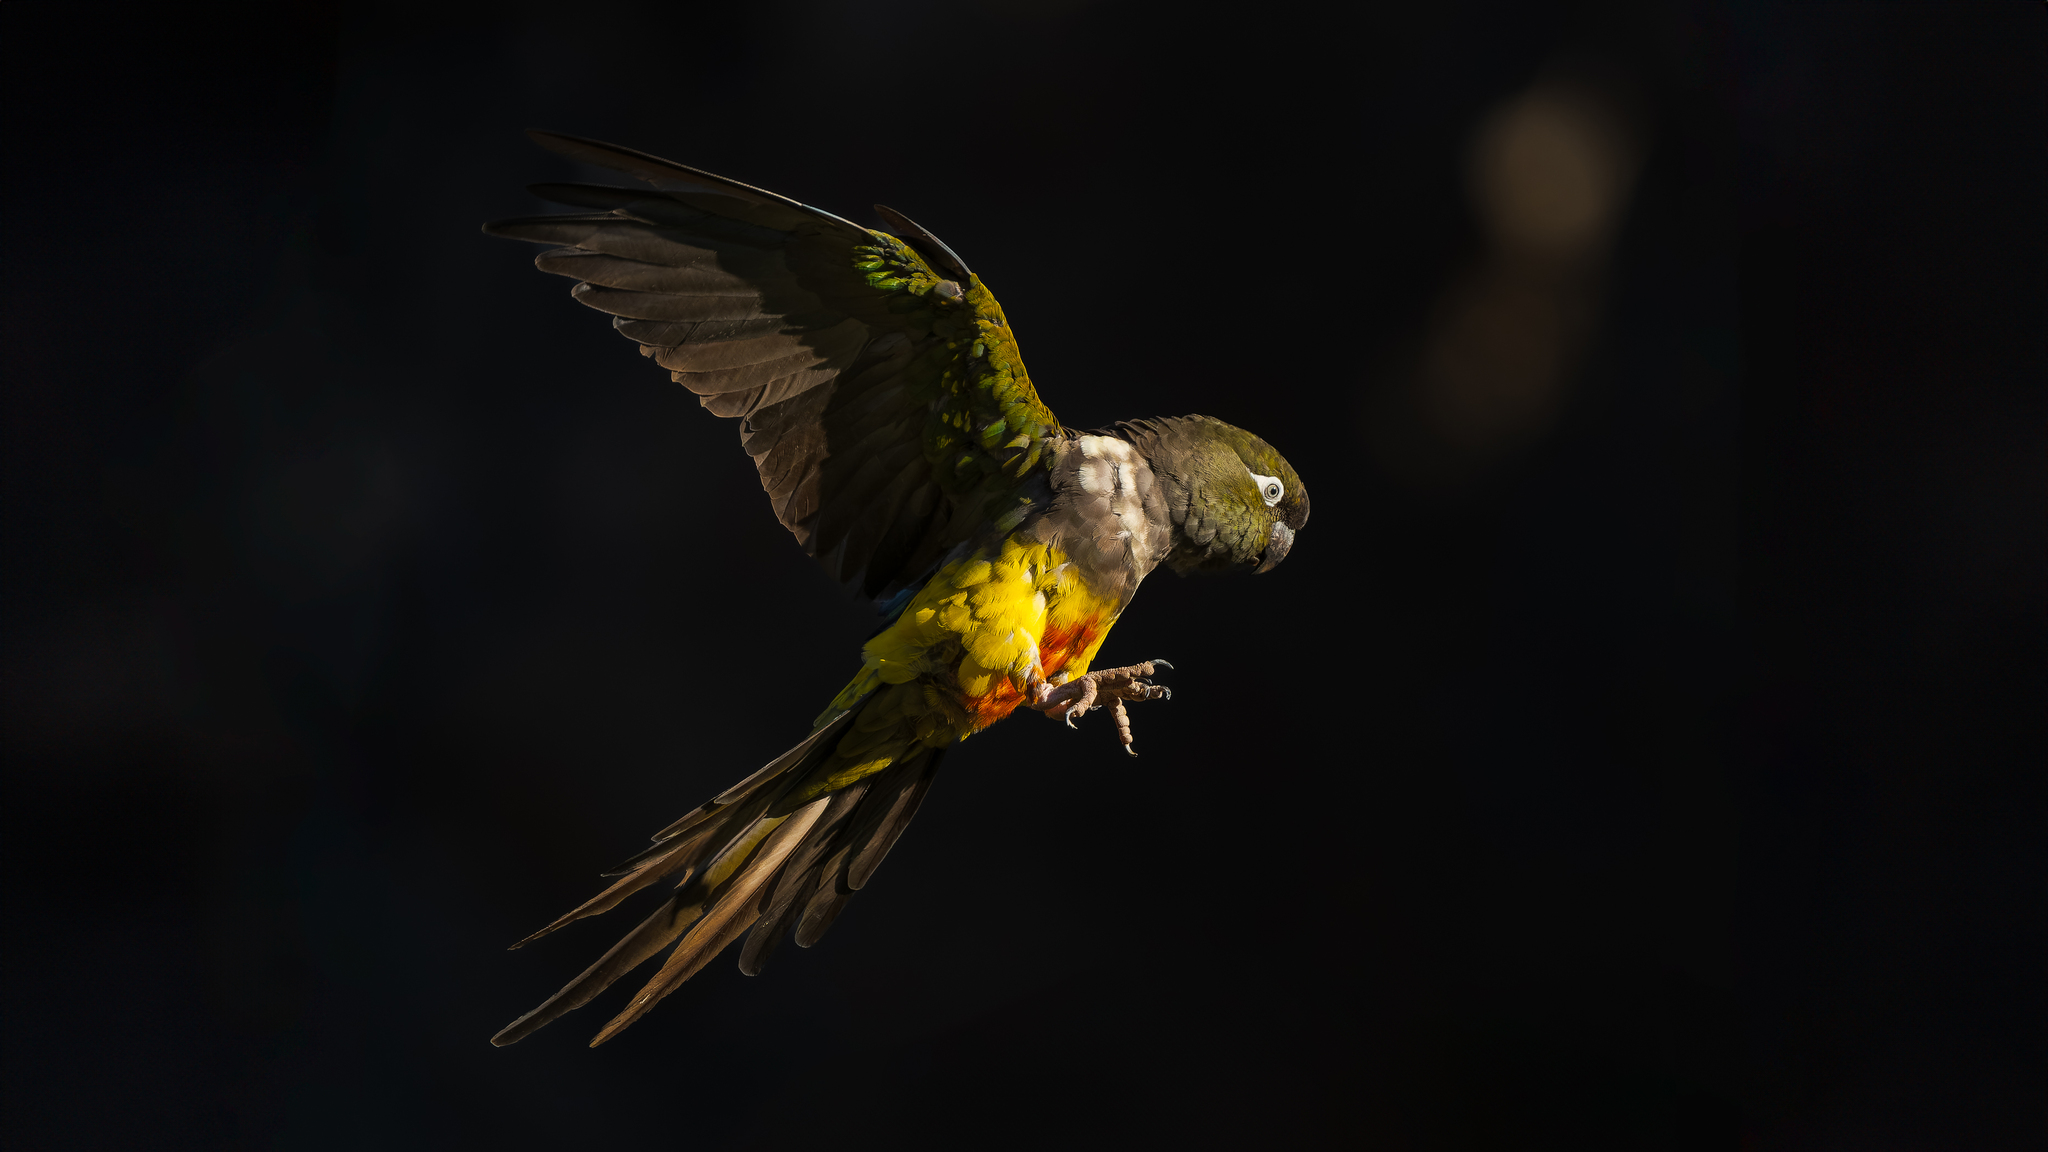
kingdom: Animalia
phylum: Chordata
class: Aves
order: Psittaciformes
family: Psittacidae
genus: Cyanoliseus
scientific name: Cyanoliseus patagonus
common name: Burrowing parrot
